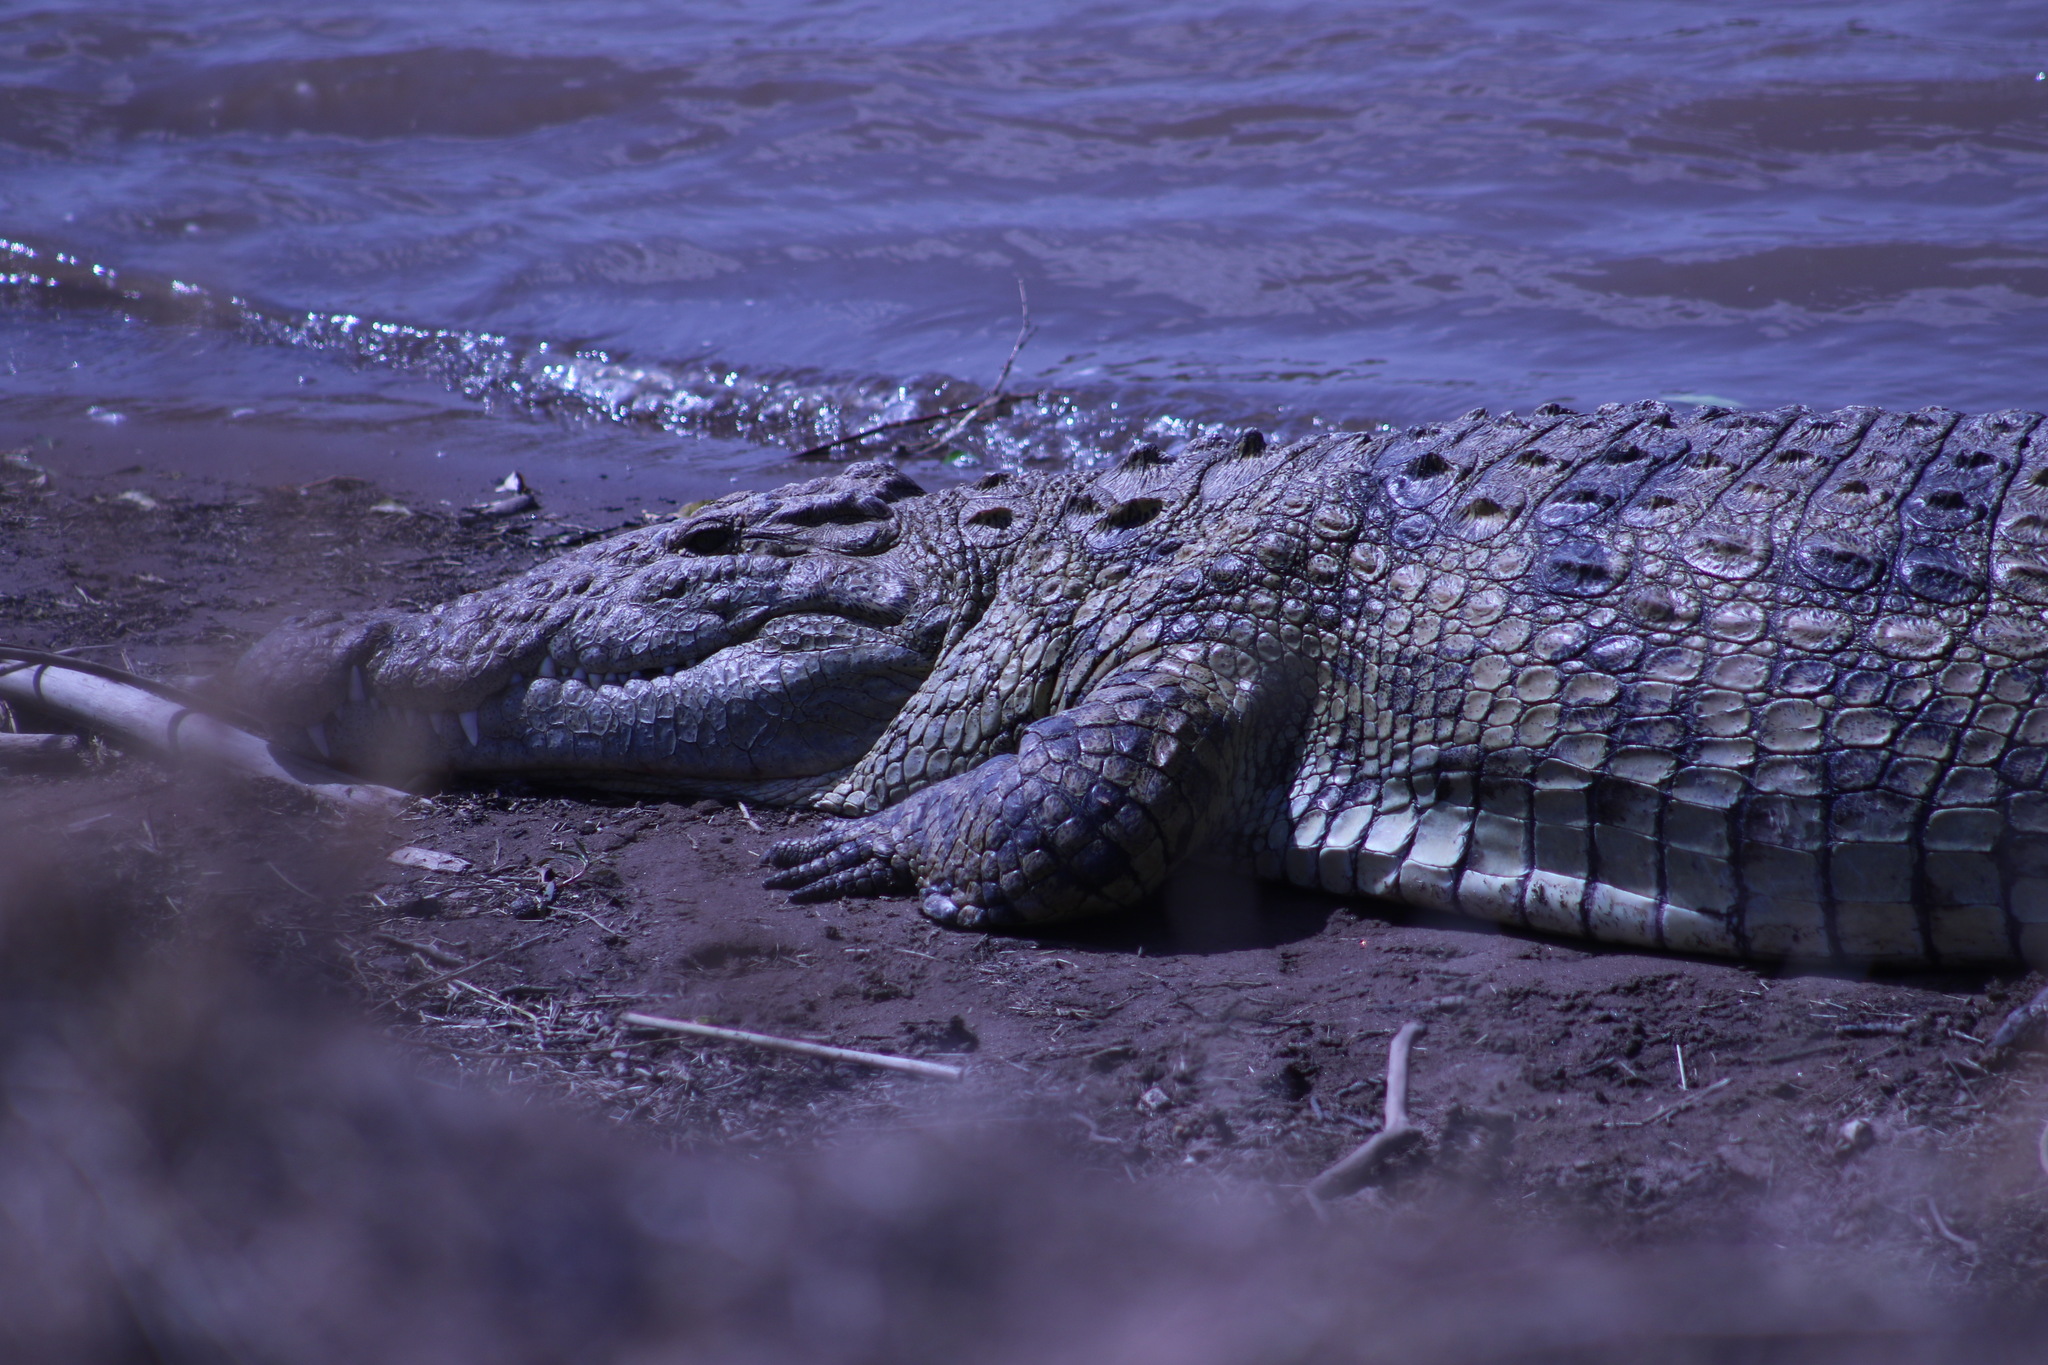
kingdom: Animalia
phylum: Chordata
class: Crocodylia
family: Crocodylidae
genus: Crocodylus
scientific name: Crocodylus niloticus
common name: Nile crocodile
